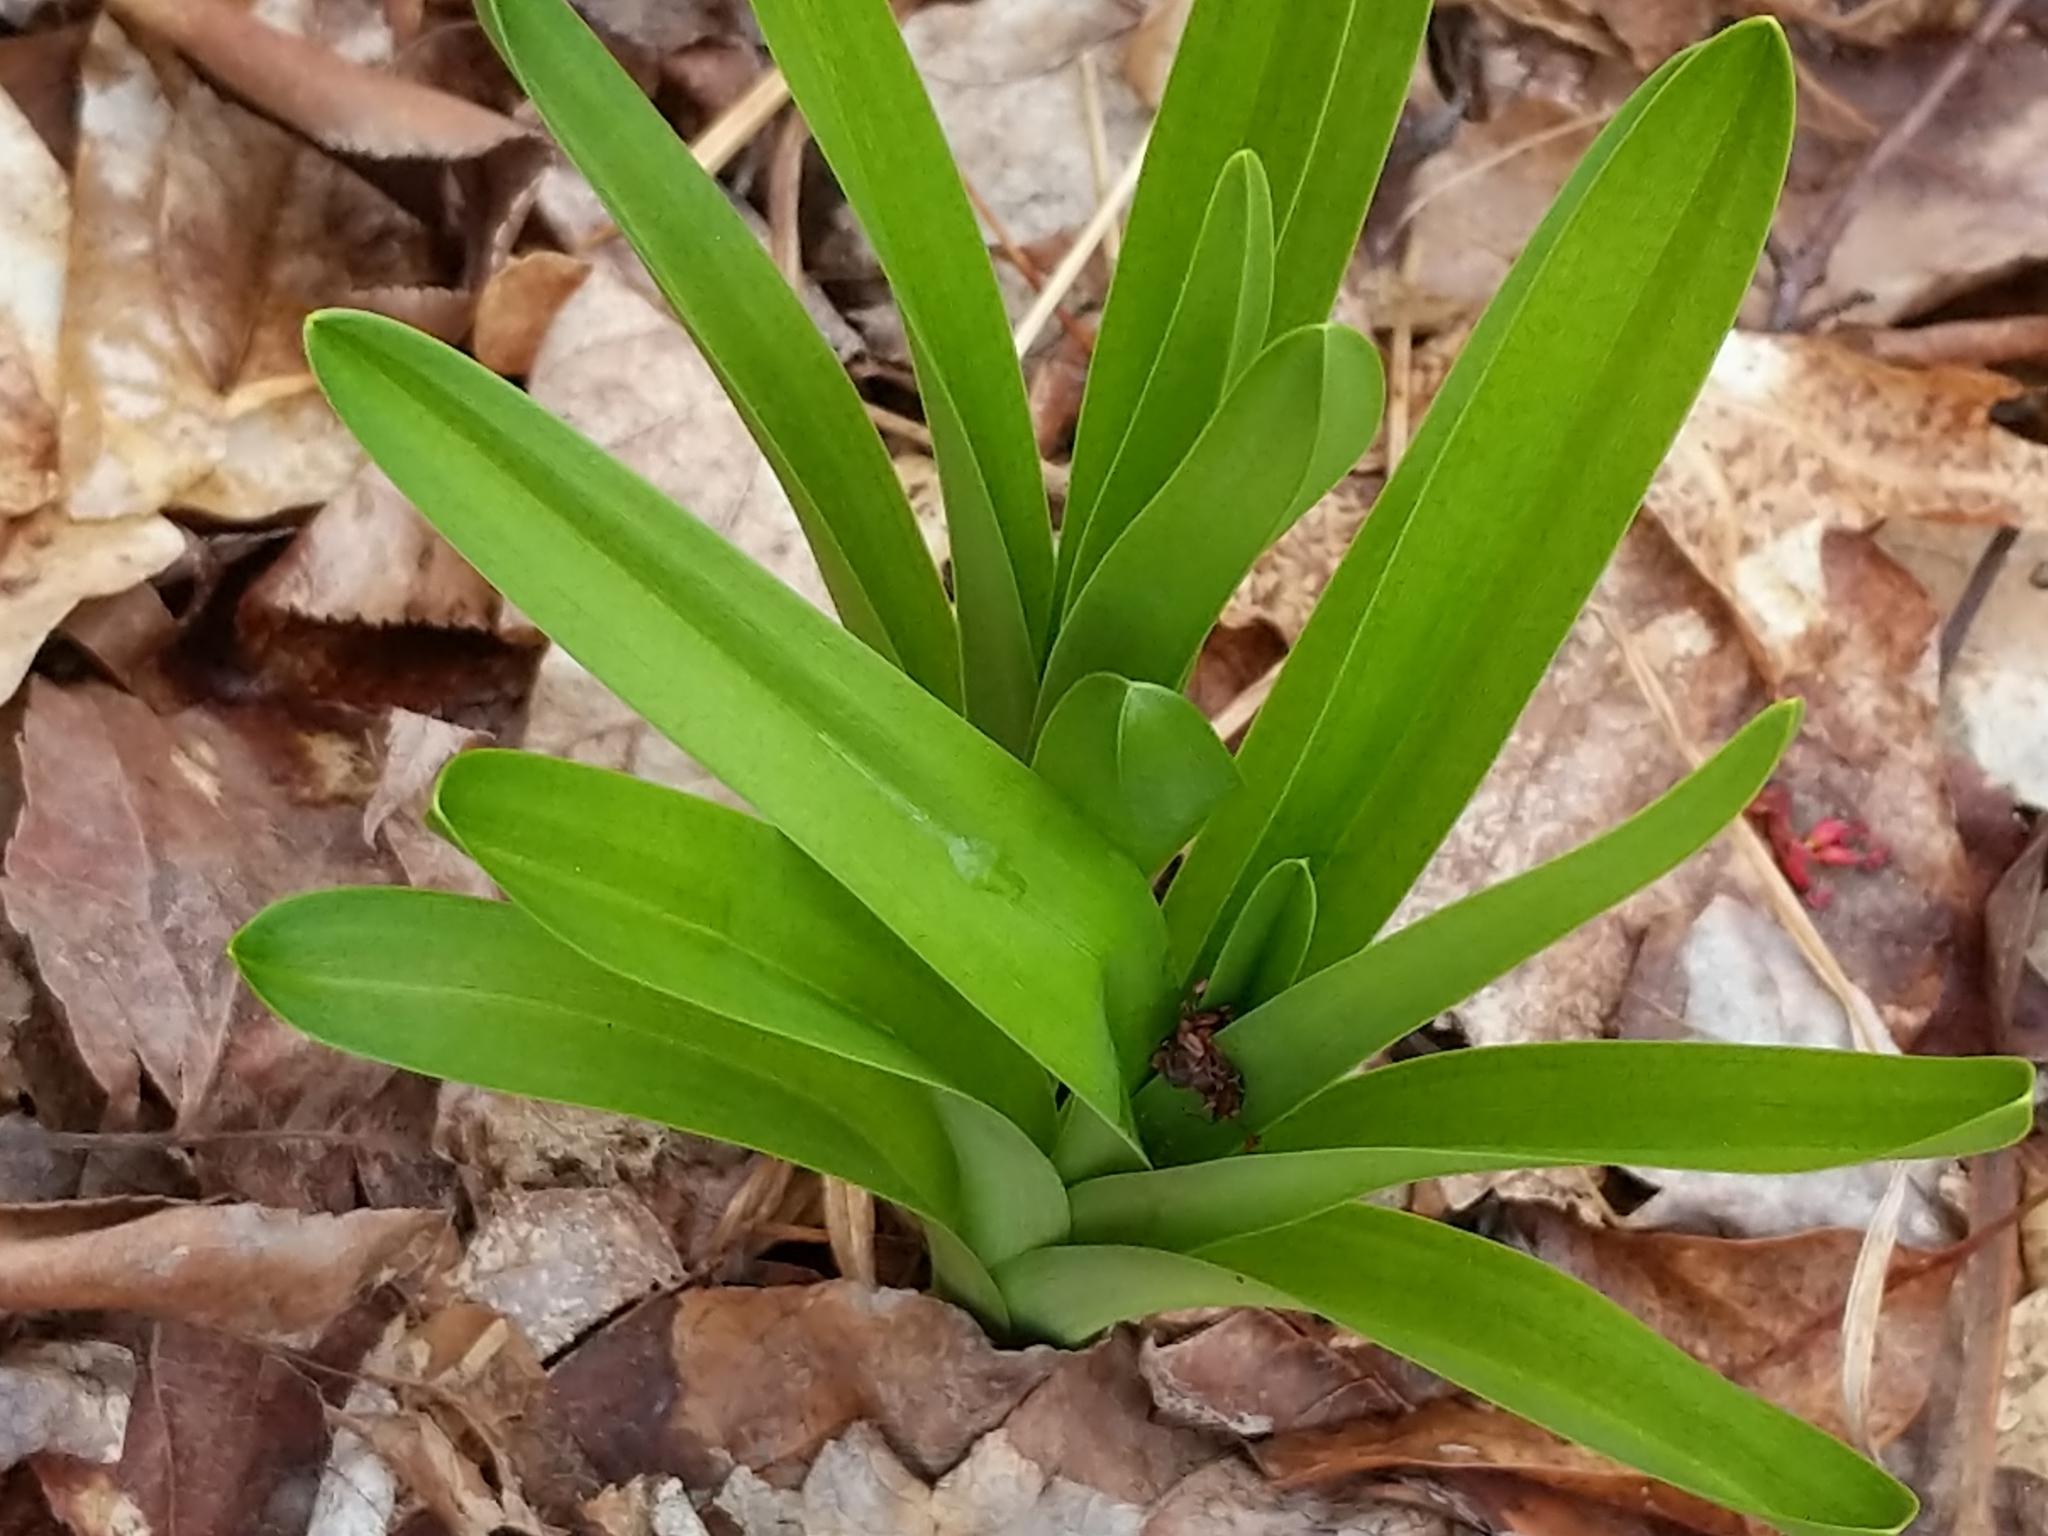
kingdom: Plantae
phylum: Tracheophyta
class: Liliopsida
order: Liliales
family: Melanthiaceae
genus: Amianthium
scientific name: Amianthium muscitoxicum
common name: Fly-poison
